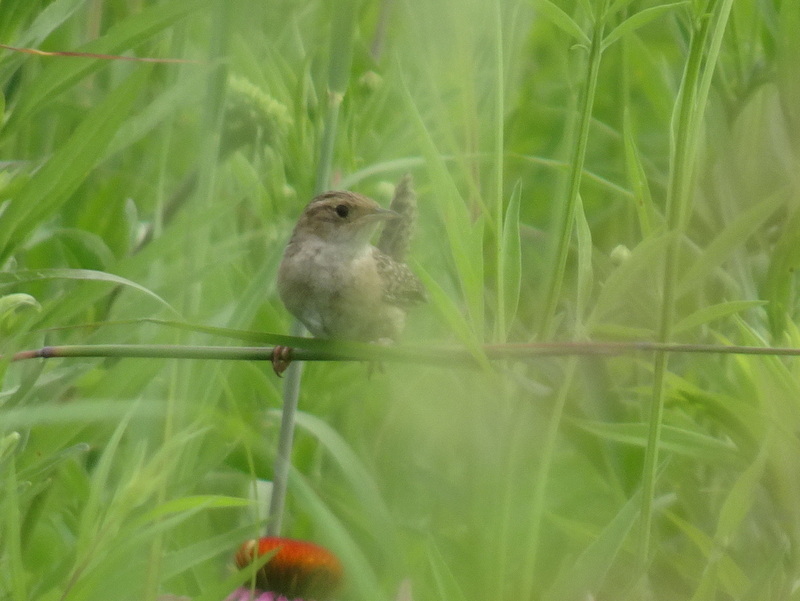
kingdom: Animalia
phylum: Chordata
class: Aves
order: Passeriformes
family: Troglodytidae
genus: Cistothorus
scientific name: Cistothorus platensis
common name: Sedge wren
